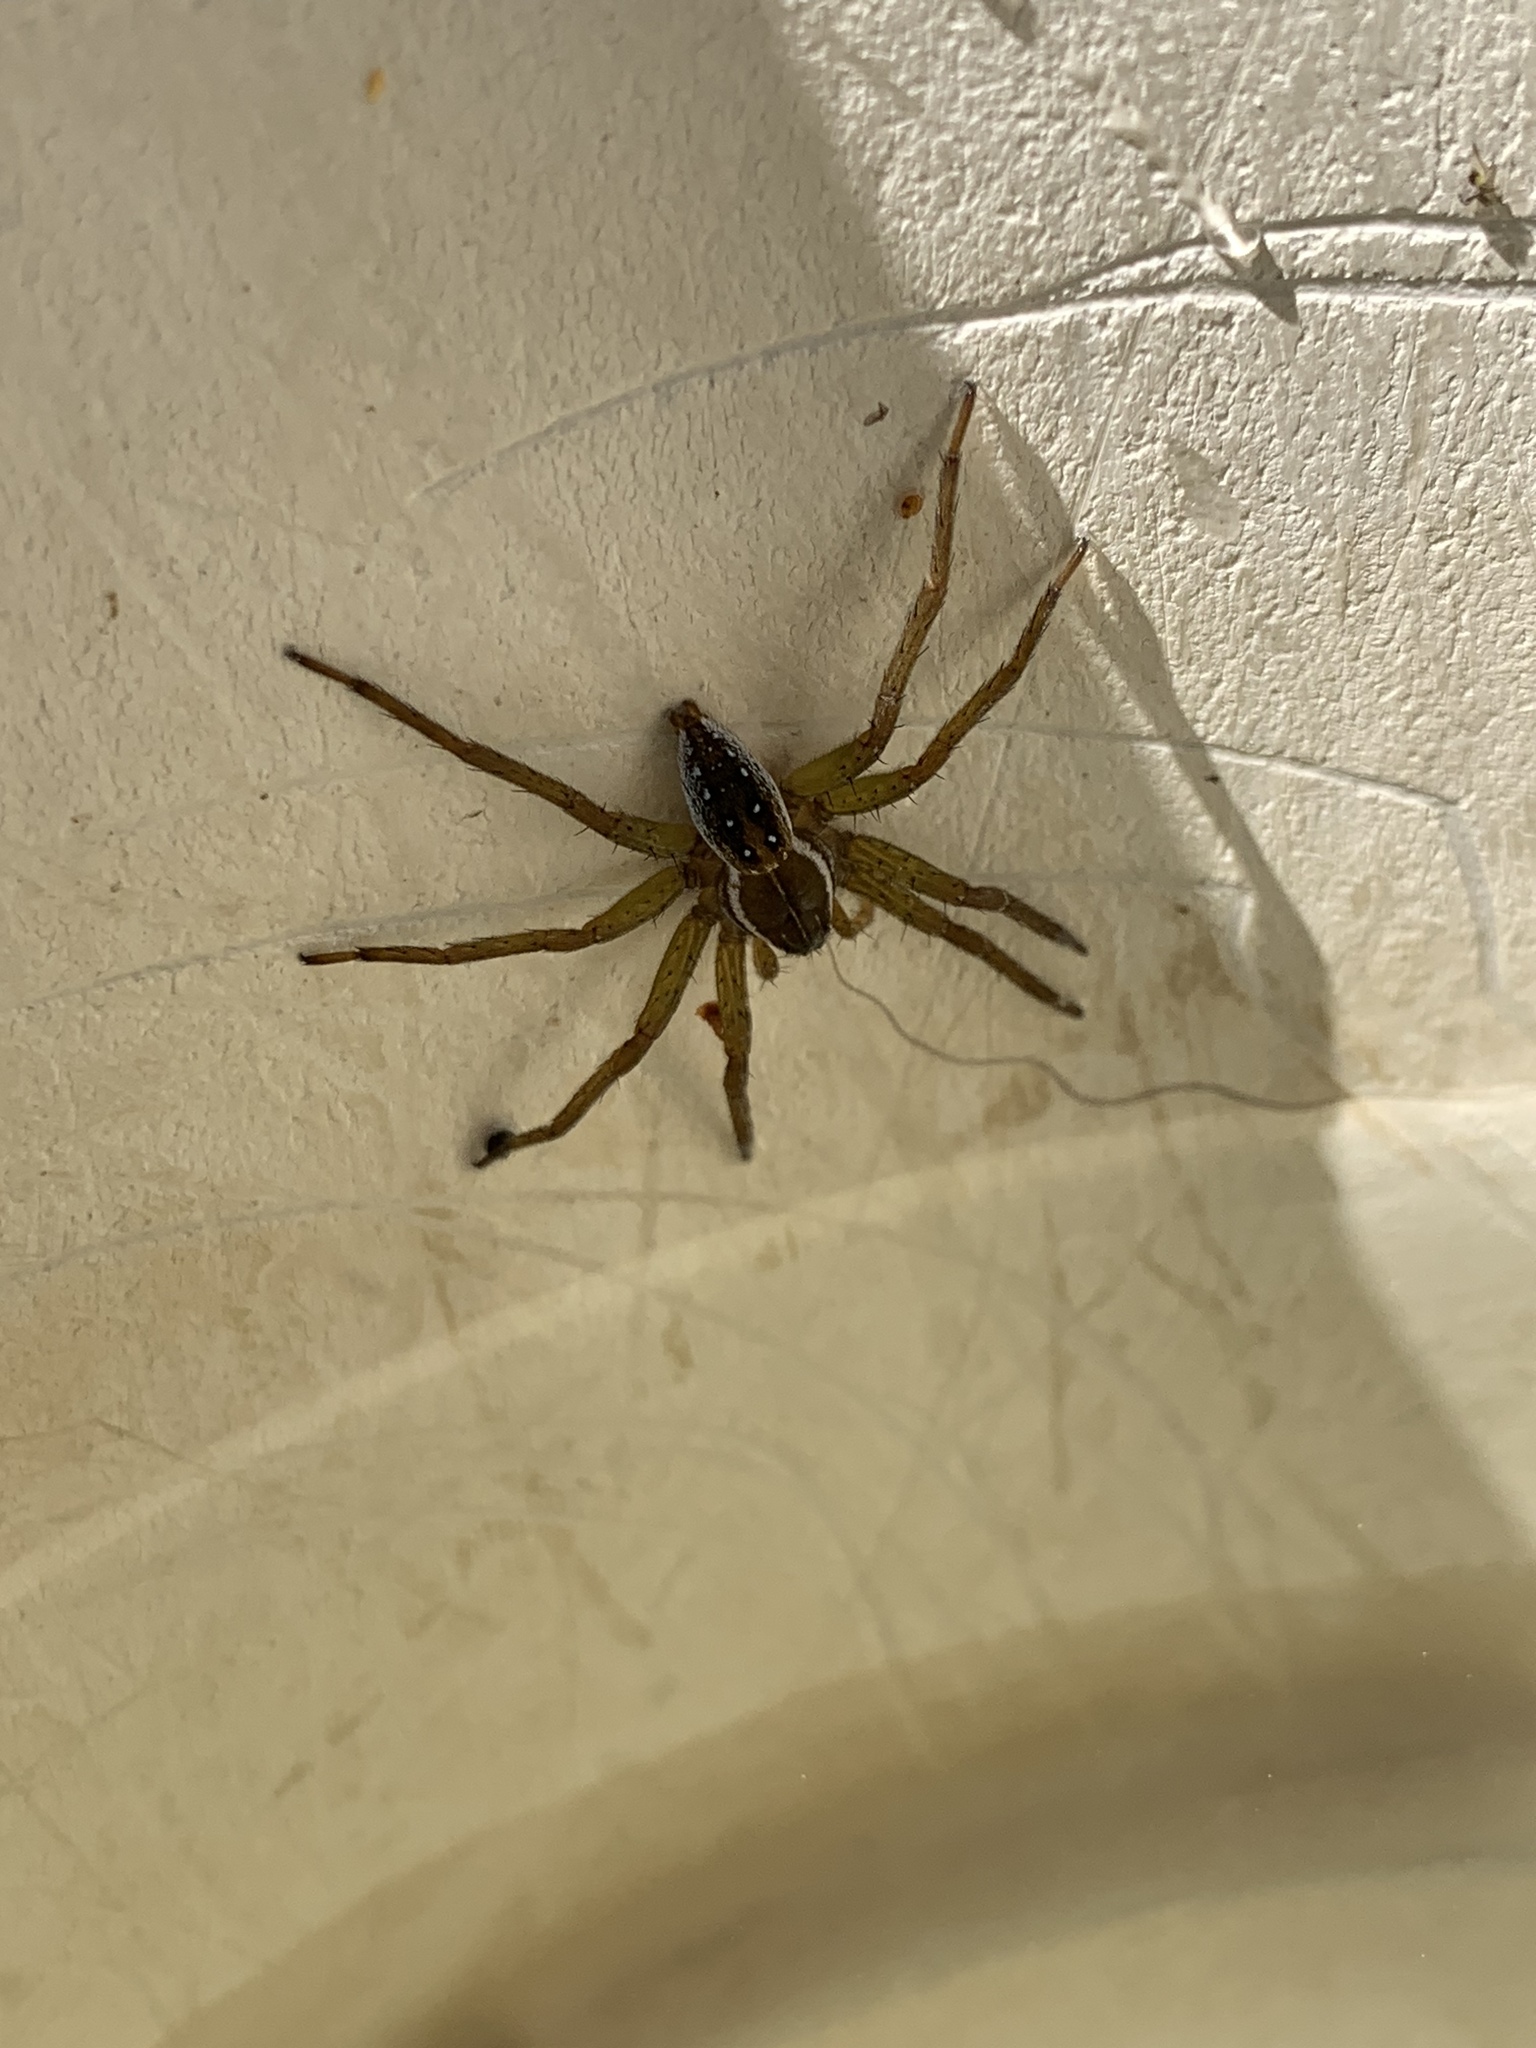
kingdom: Animalia
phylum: Arthropoda
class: Arachnida
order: Araneae
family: Pisauridae
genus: Dolomedes
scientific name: Dolomedes triton
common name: Six-spotted fishing spider
